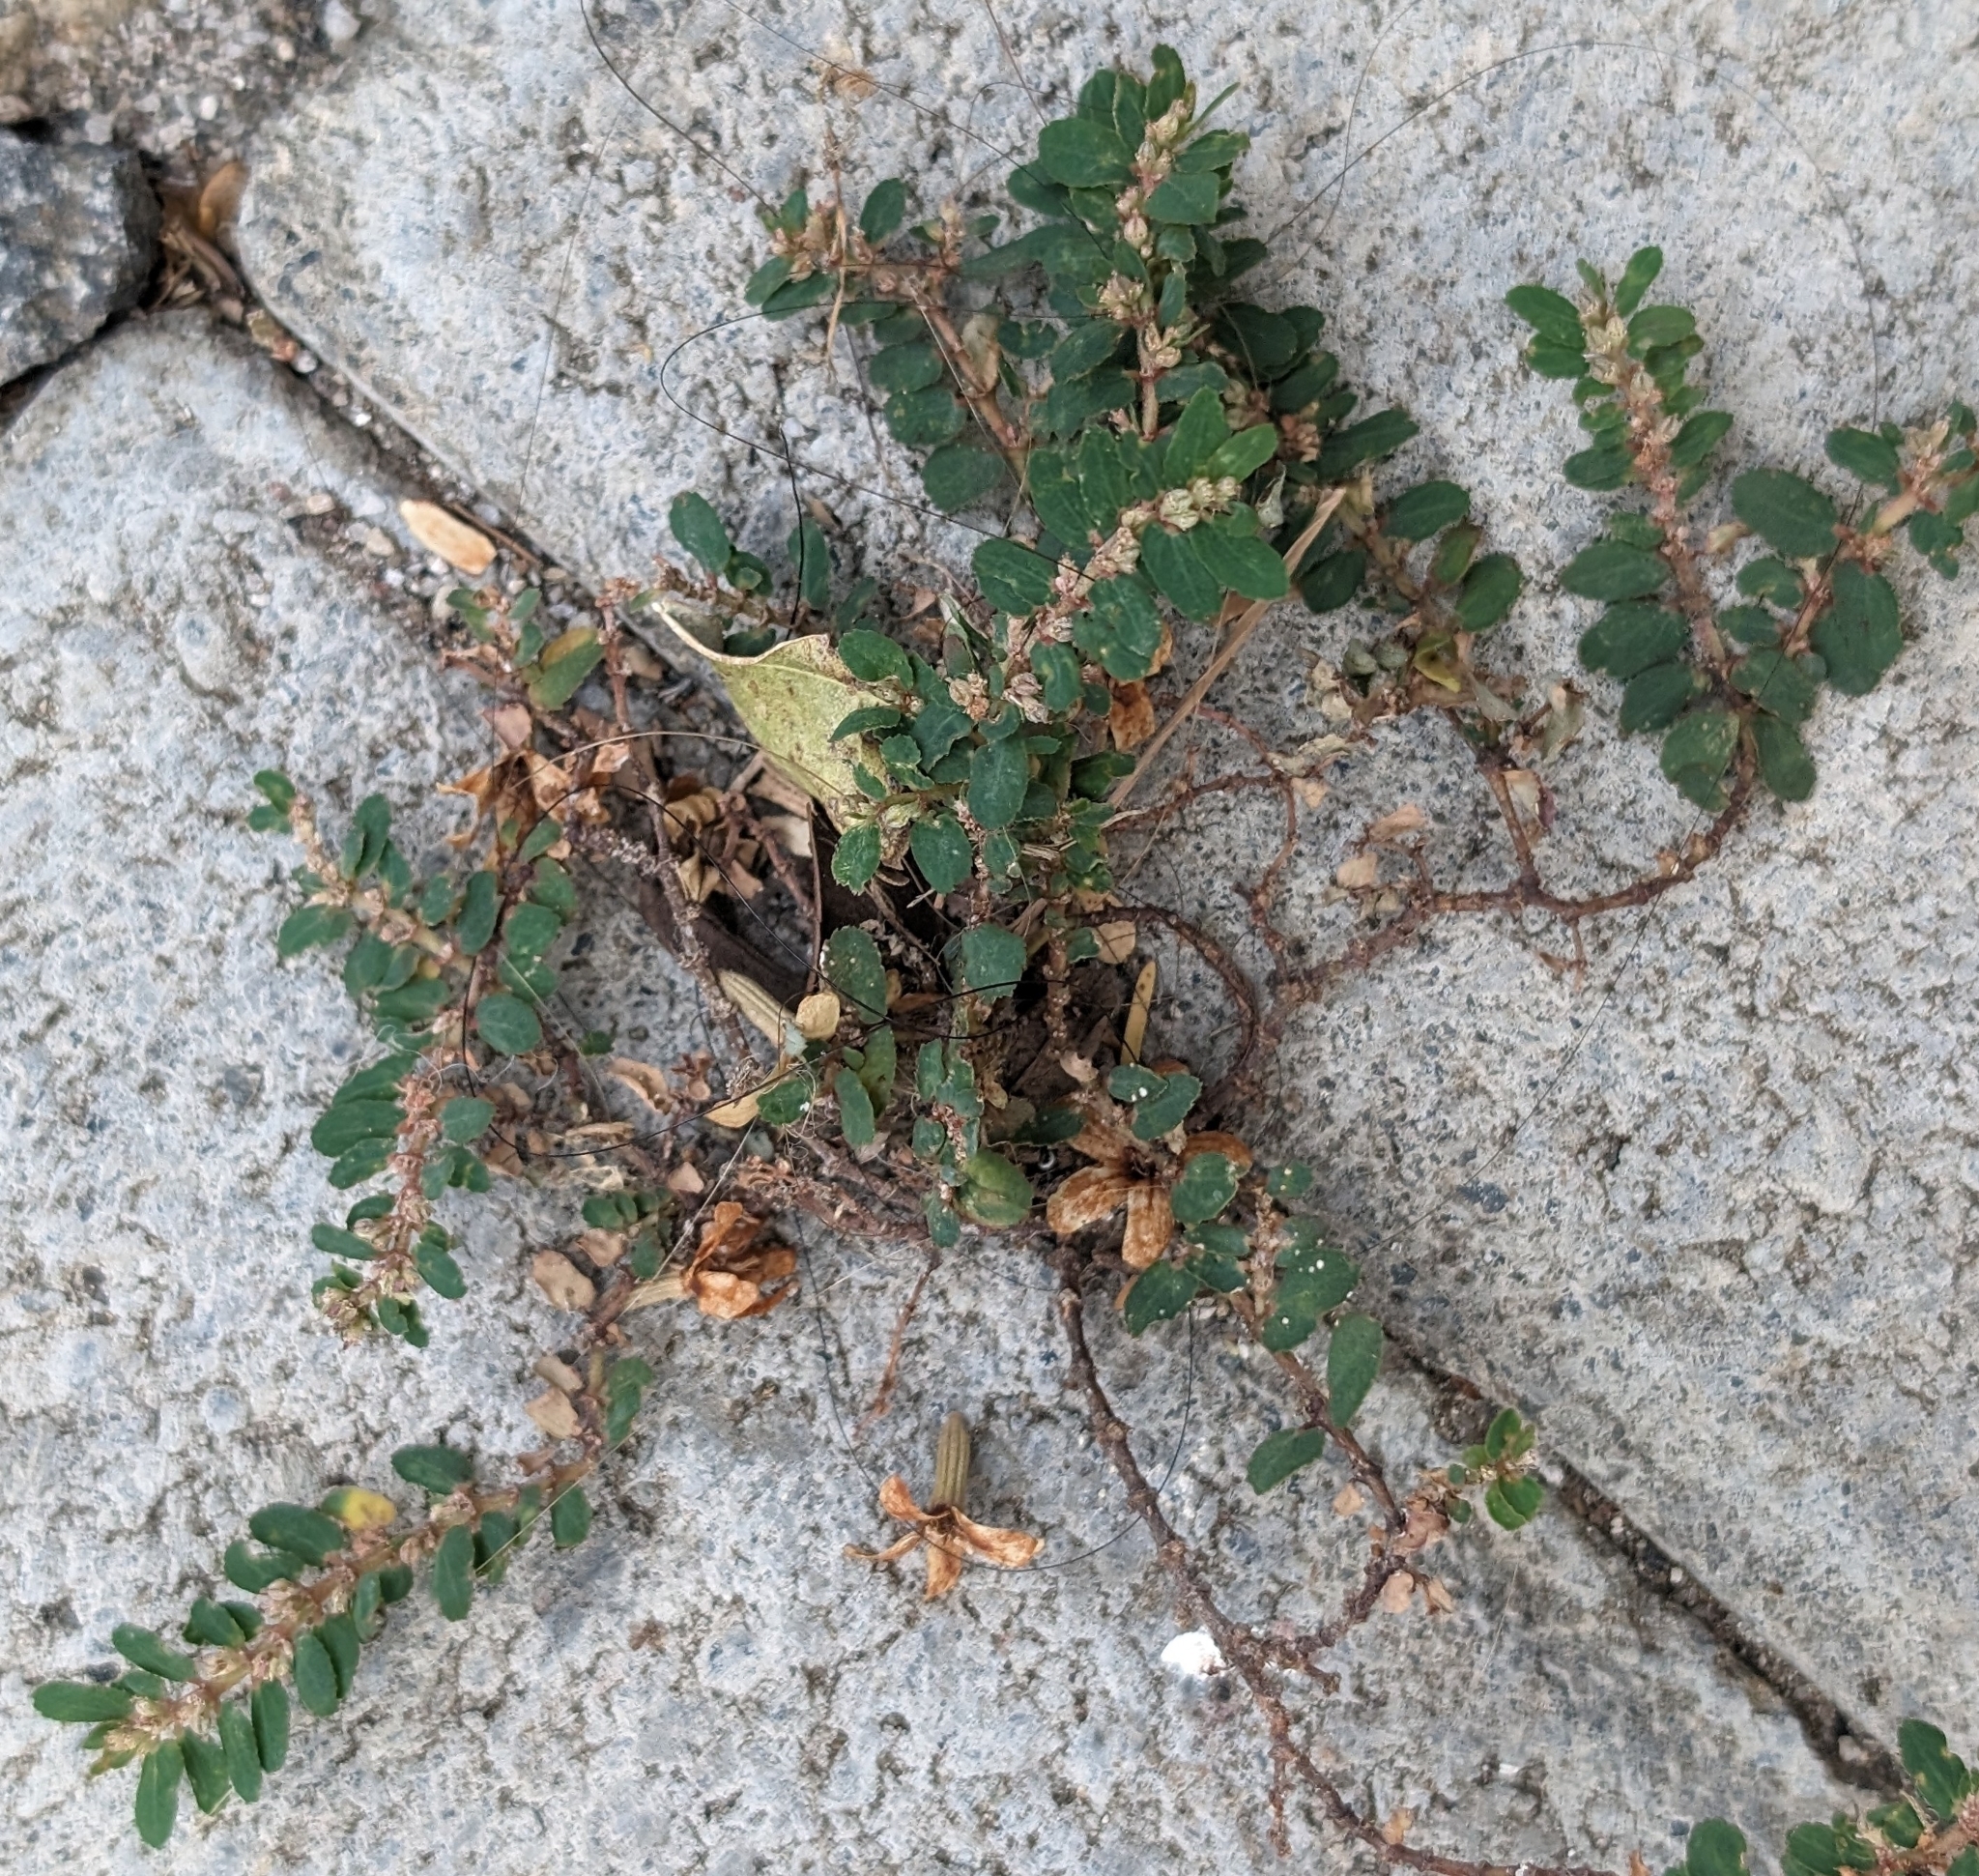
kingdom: Plantae
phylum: Tracheophyta
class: Magnoliopsida
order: Malpighiales
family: Euphorbiaceae
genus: Euphorbia
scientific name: Euphorbia thymifolia
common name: Gulf sandmat
